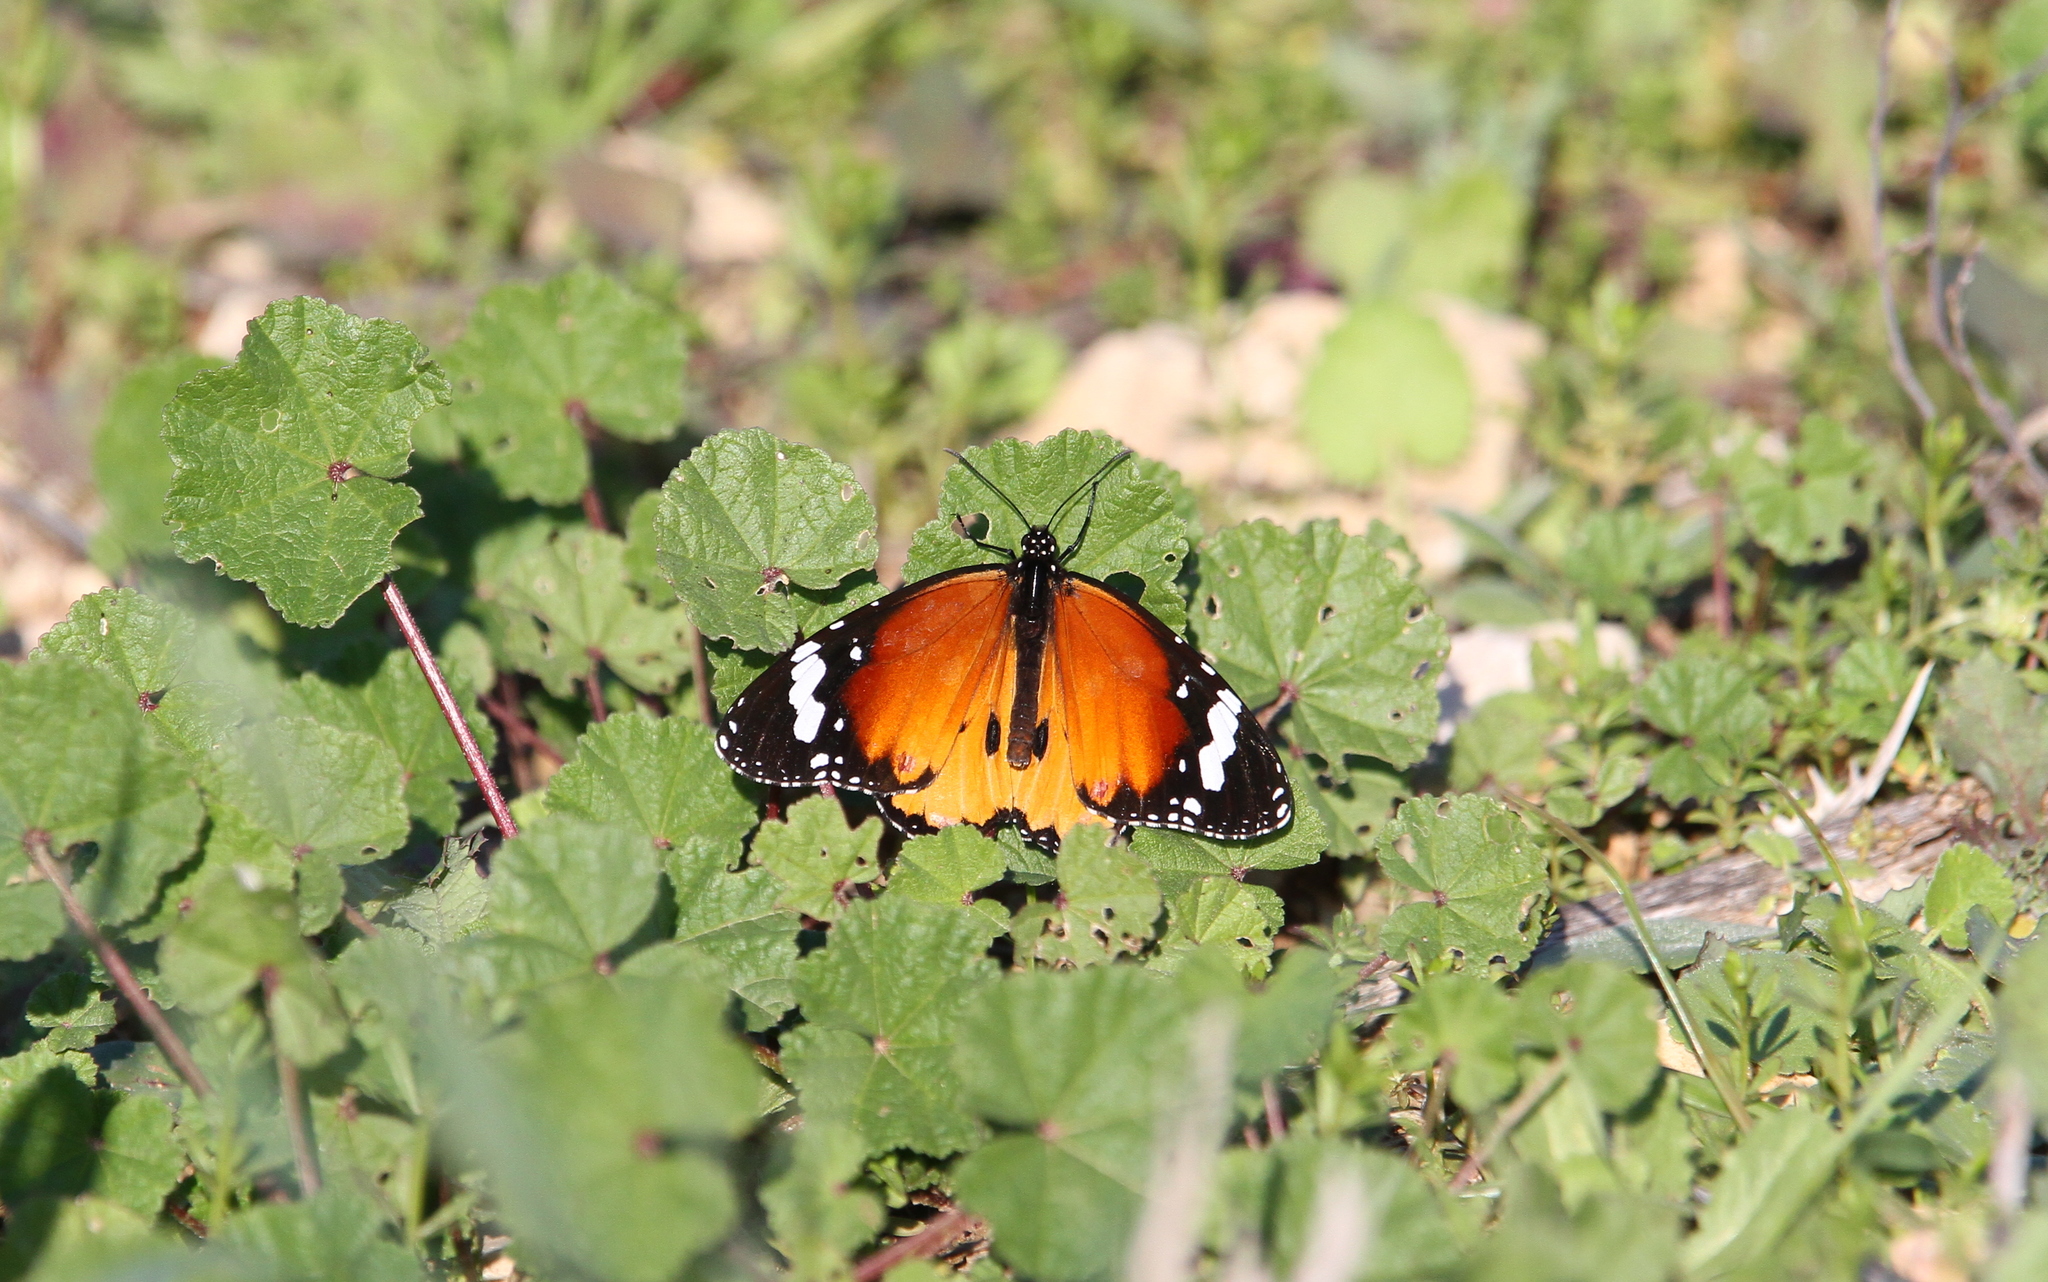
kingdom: Animalia
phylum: Arthropoda
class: Insecta
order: Lepidoptera
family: Nymphalidae
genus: Danaus
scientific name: Danaus chrysippus
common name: Plain tiger
